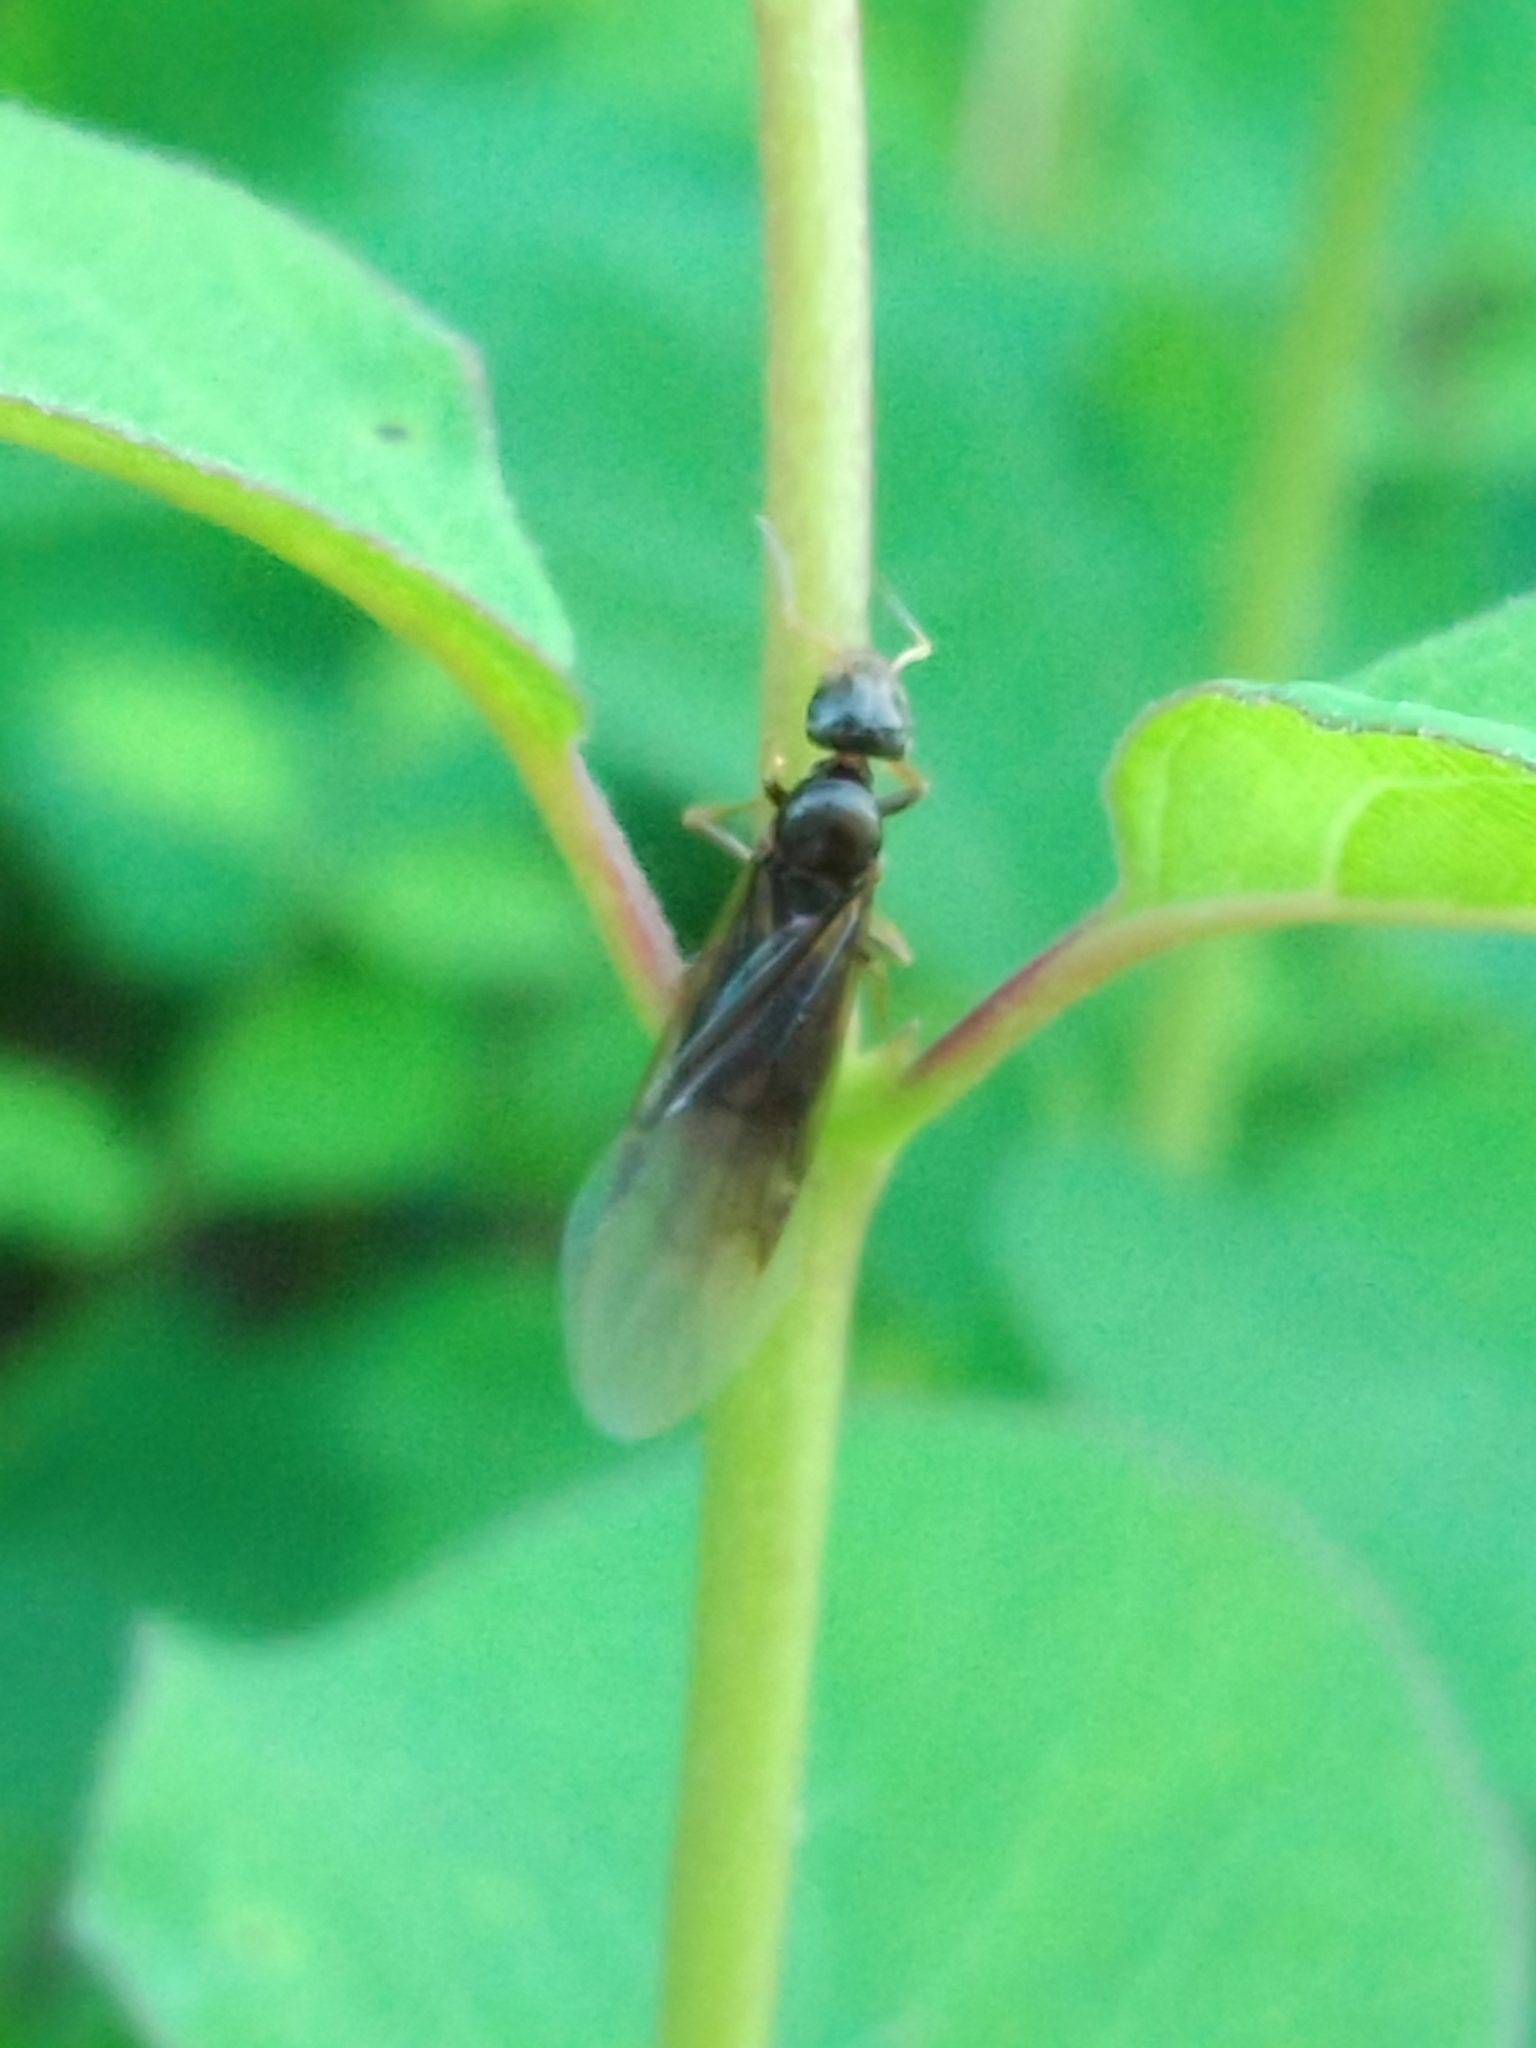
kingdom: Animalia
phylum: Arthropoda
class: Insecta
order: Hymenoptera
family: Formicidae
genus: Lasius
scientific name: Lasius brunneus
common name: Brown ant
